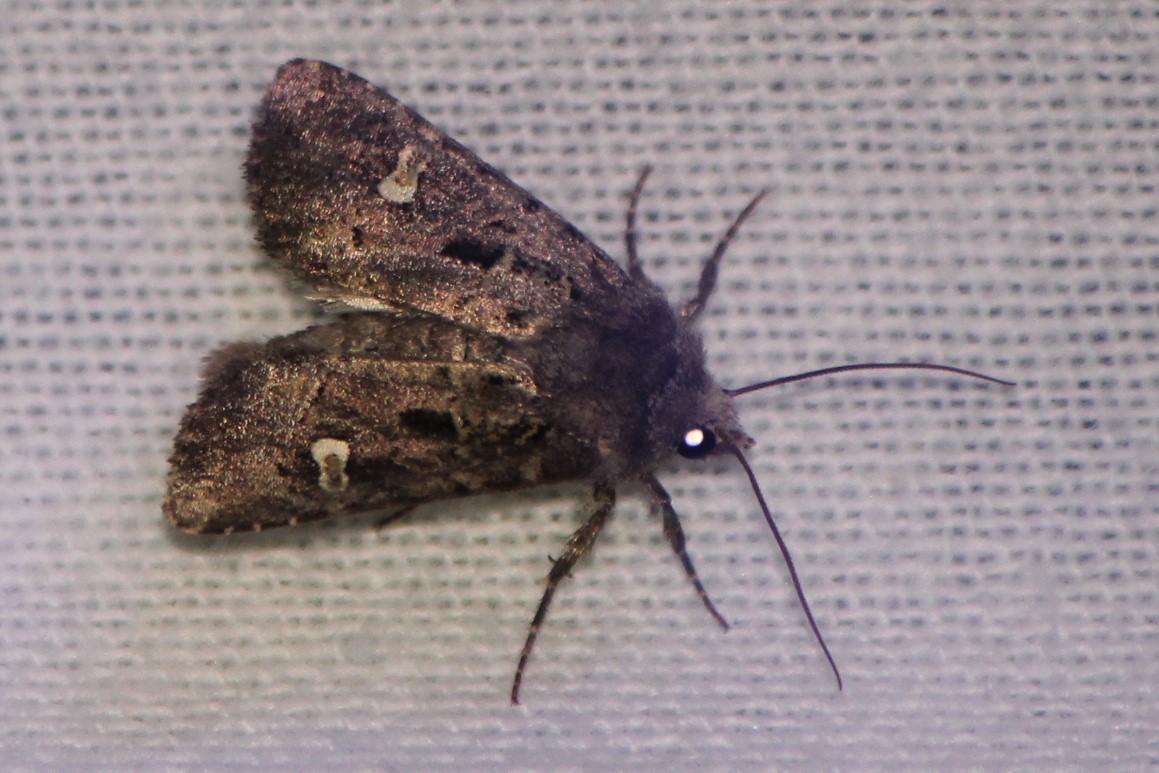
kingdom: Animalia
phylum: Arthropoda
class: Insecta
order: Lepidoptera
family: Noctuidae
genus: Lacinipolia
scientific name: Lacinipolia renigera
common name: Kidney-spotted minor
